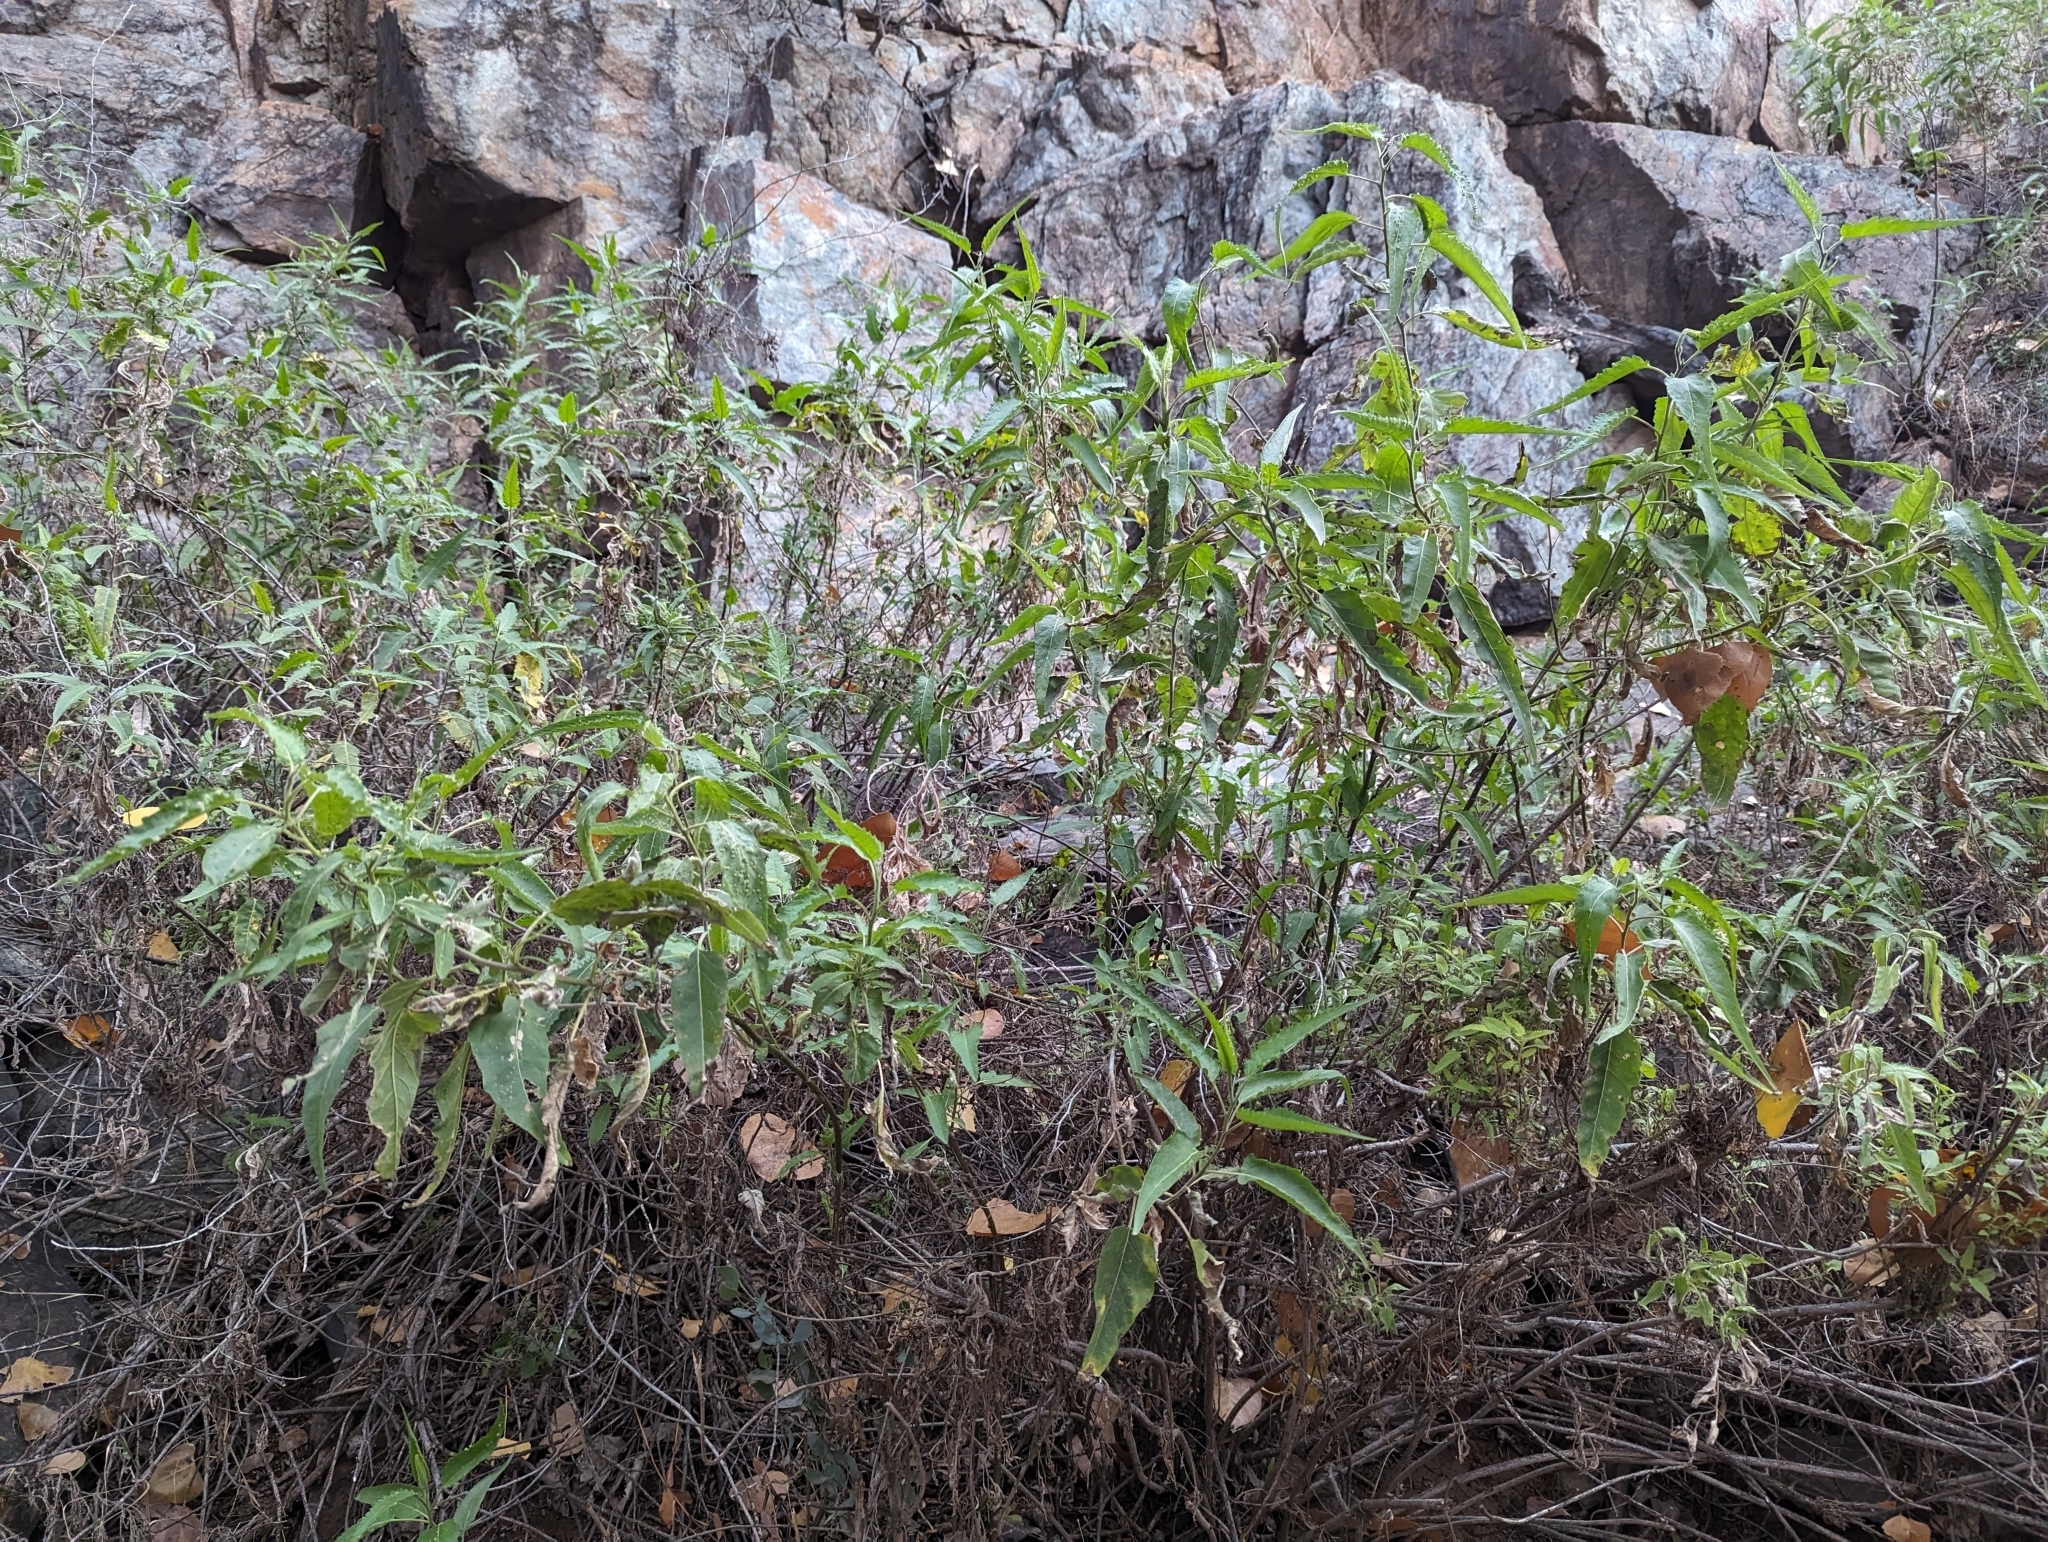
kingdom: Plantae
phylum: Tracheophyta
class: Magnoliopsida
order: Asterales
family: Asteraceae
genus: Ambrosia
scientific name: Ambrosia ambrosioides
